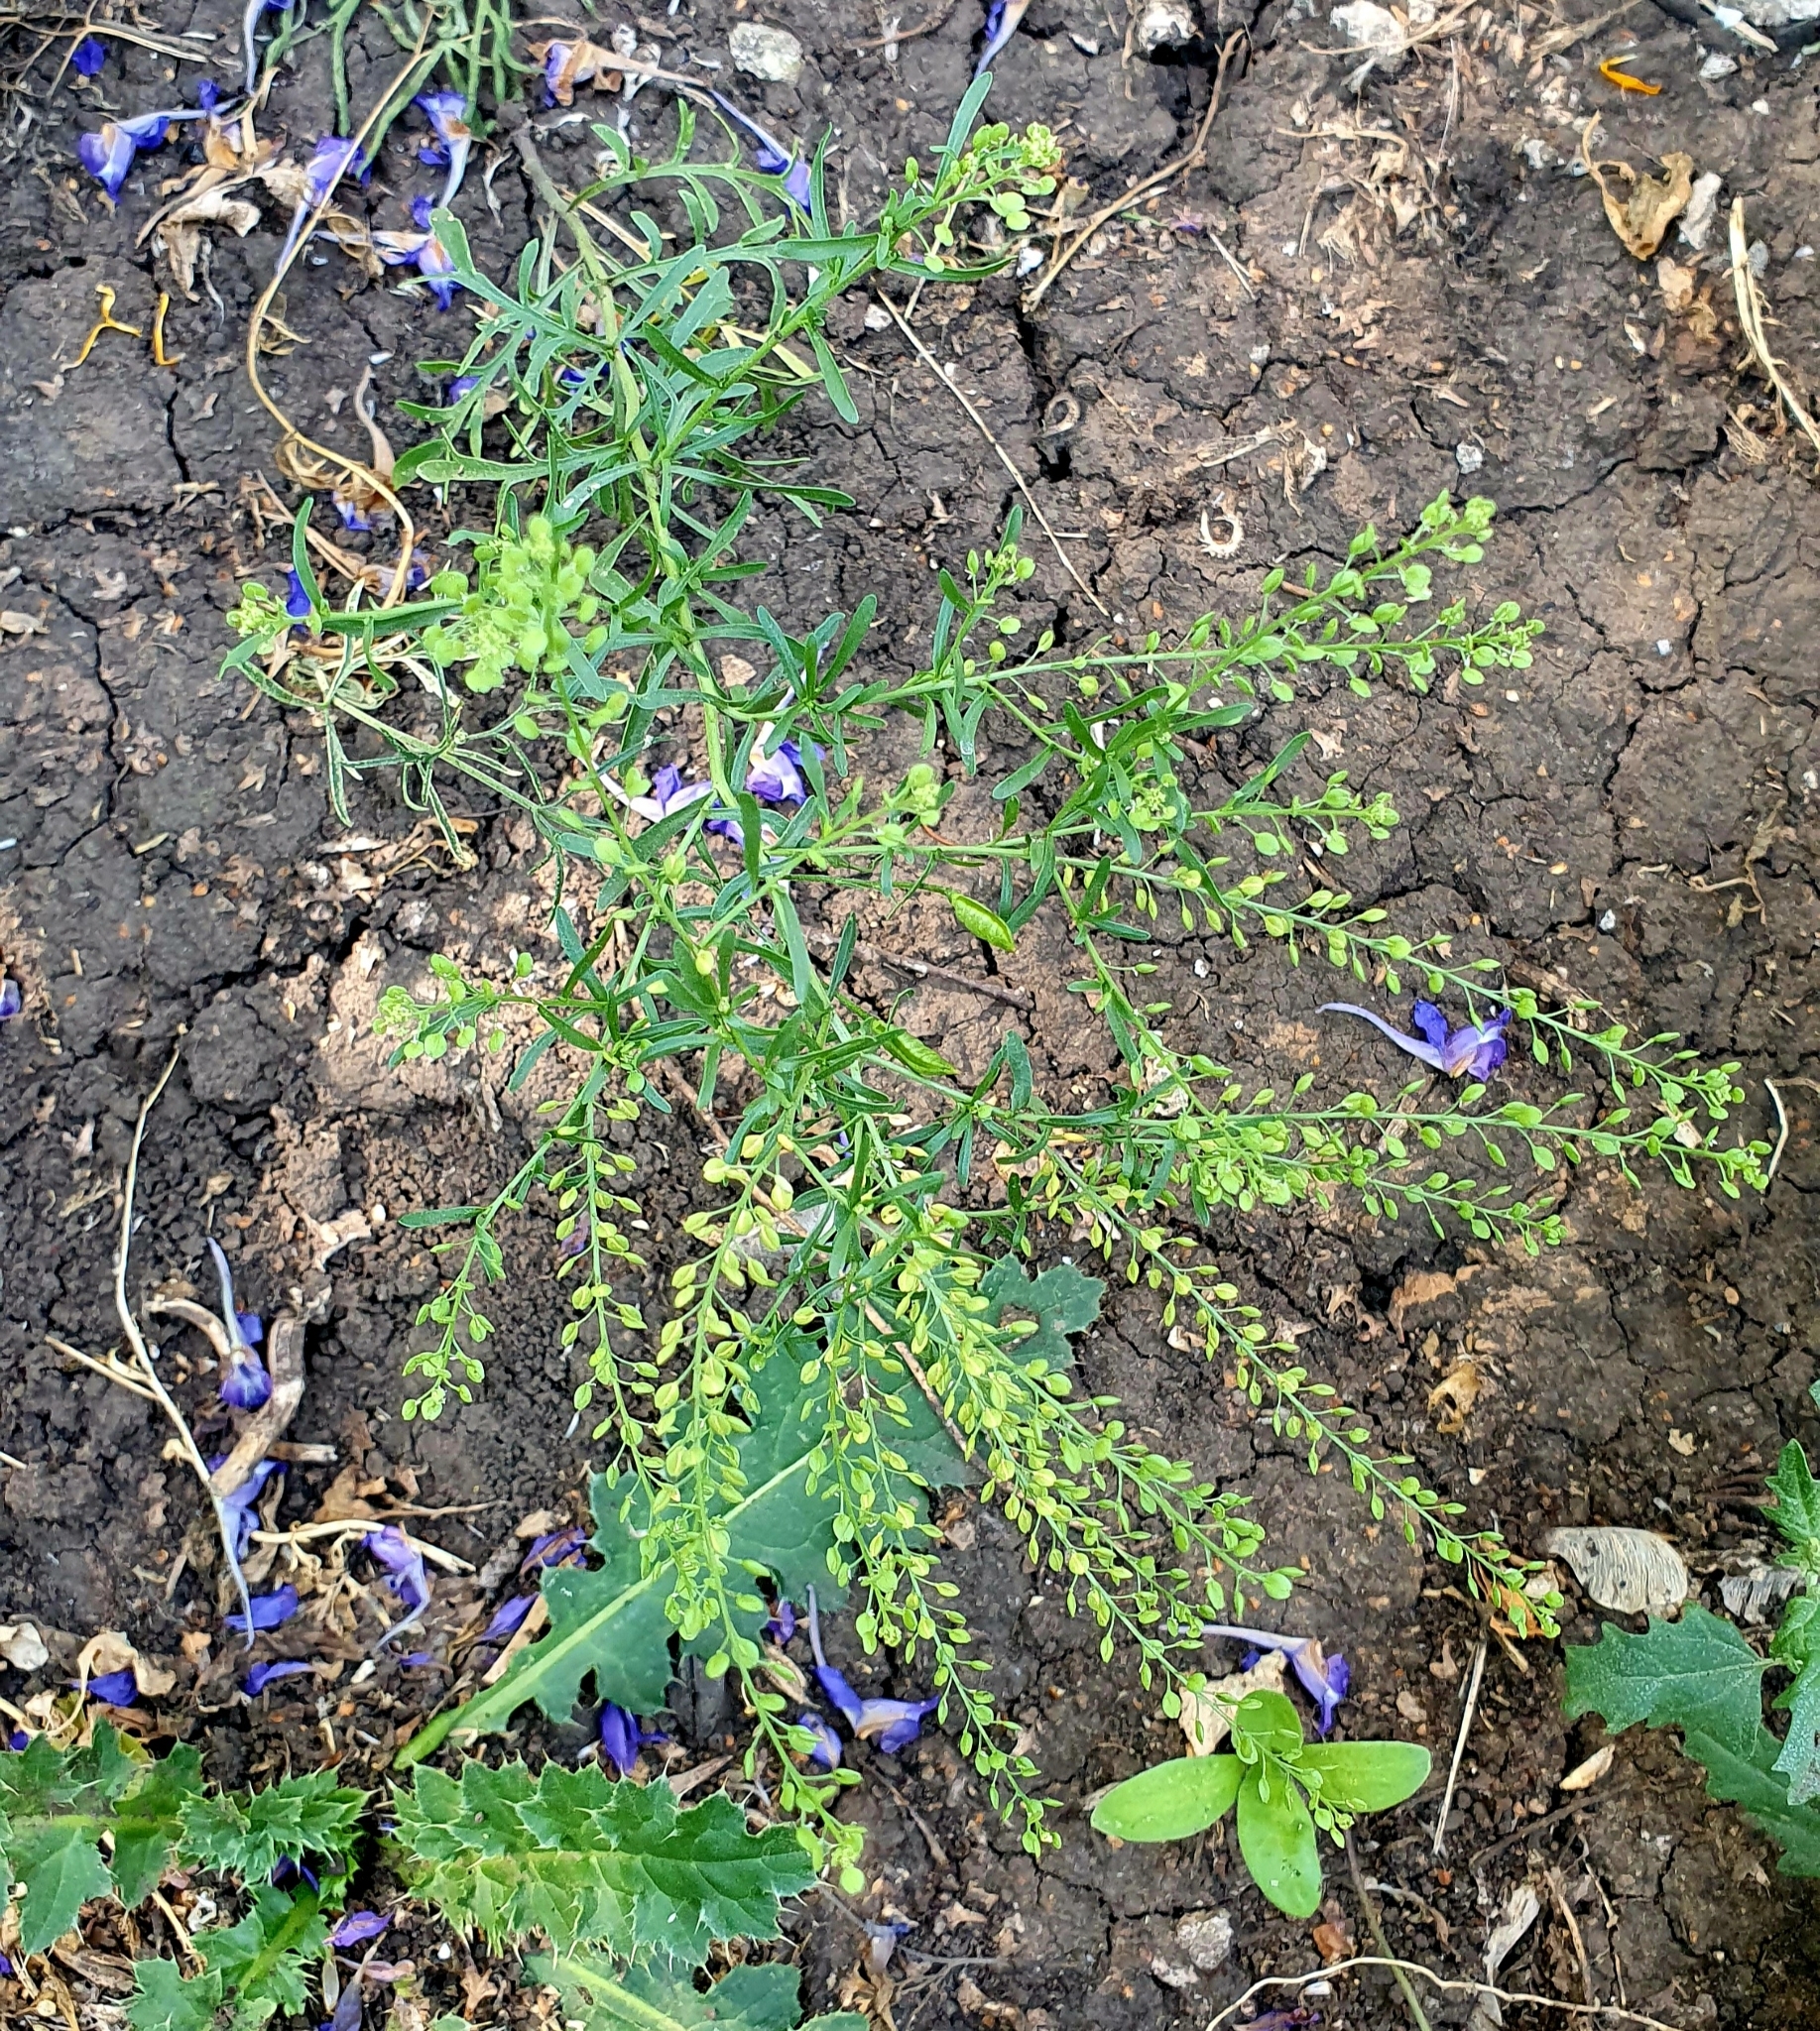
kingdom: Plantae
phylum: Tracheophyta
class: Magnoliopsida
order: Brassicales
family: Brassicaceae
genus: Lepidium
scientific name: Lepidium ruderale
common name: Narrow-leaved pepperwort
